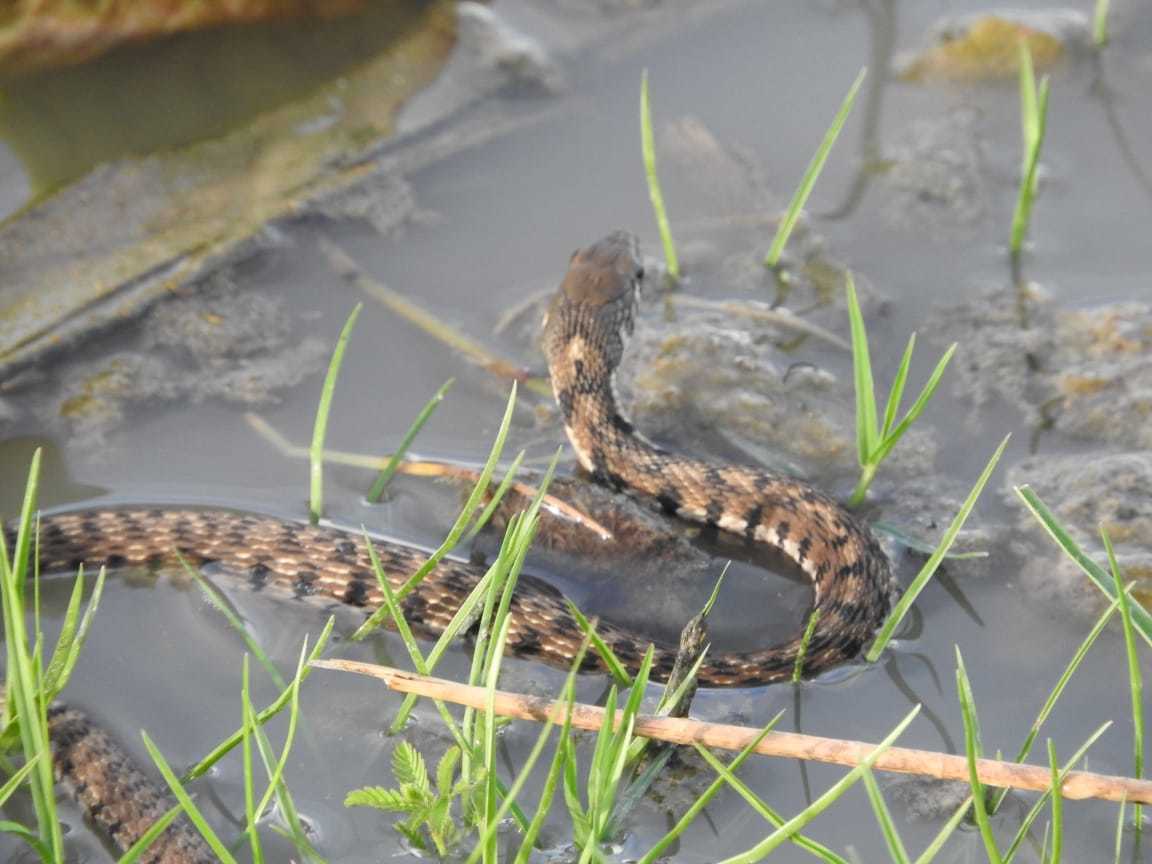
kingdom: Animalia
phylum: Chordata
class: Squamata
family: Colubridae
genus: Thamnophis
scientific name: Thamnophis marcianus
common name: Checkered garter snake
